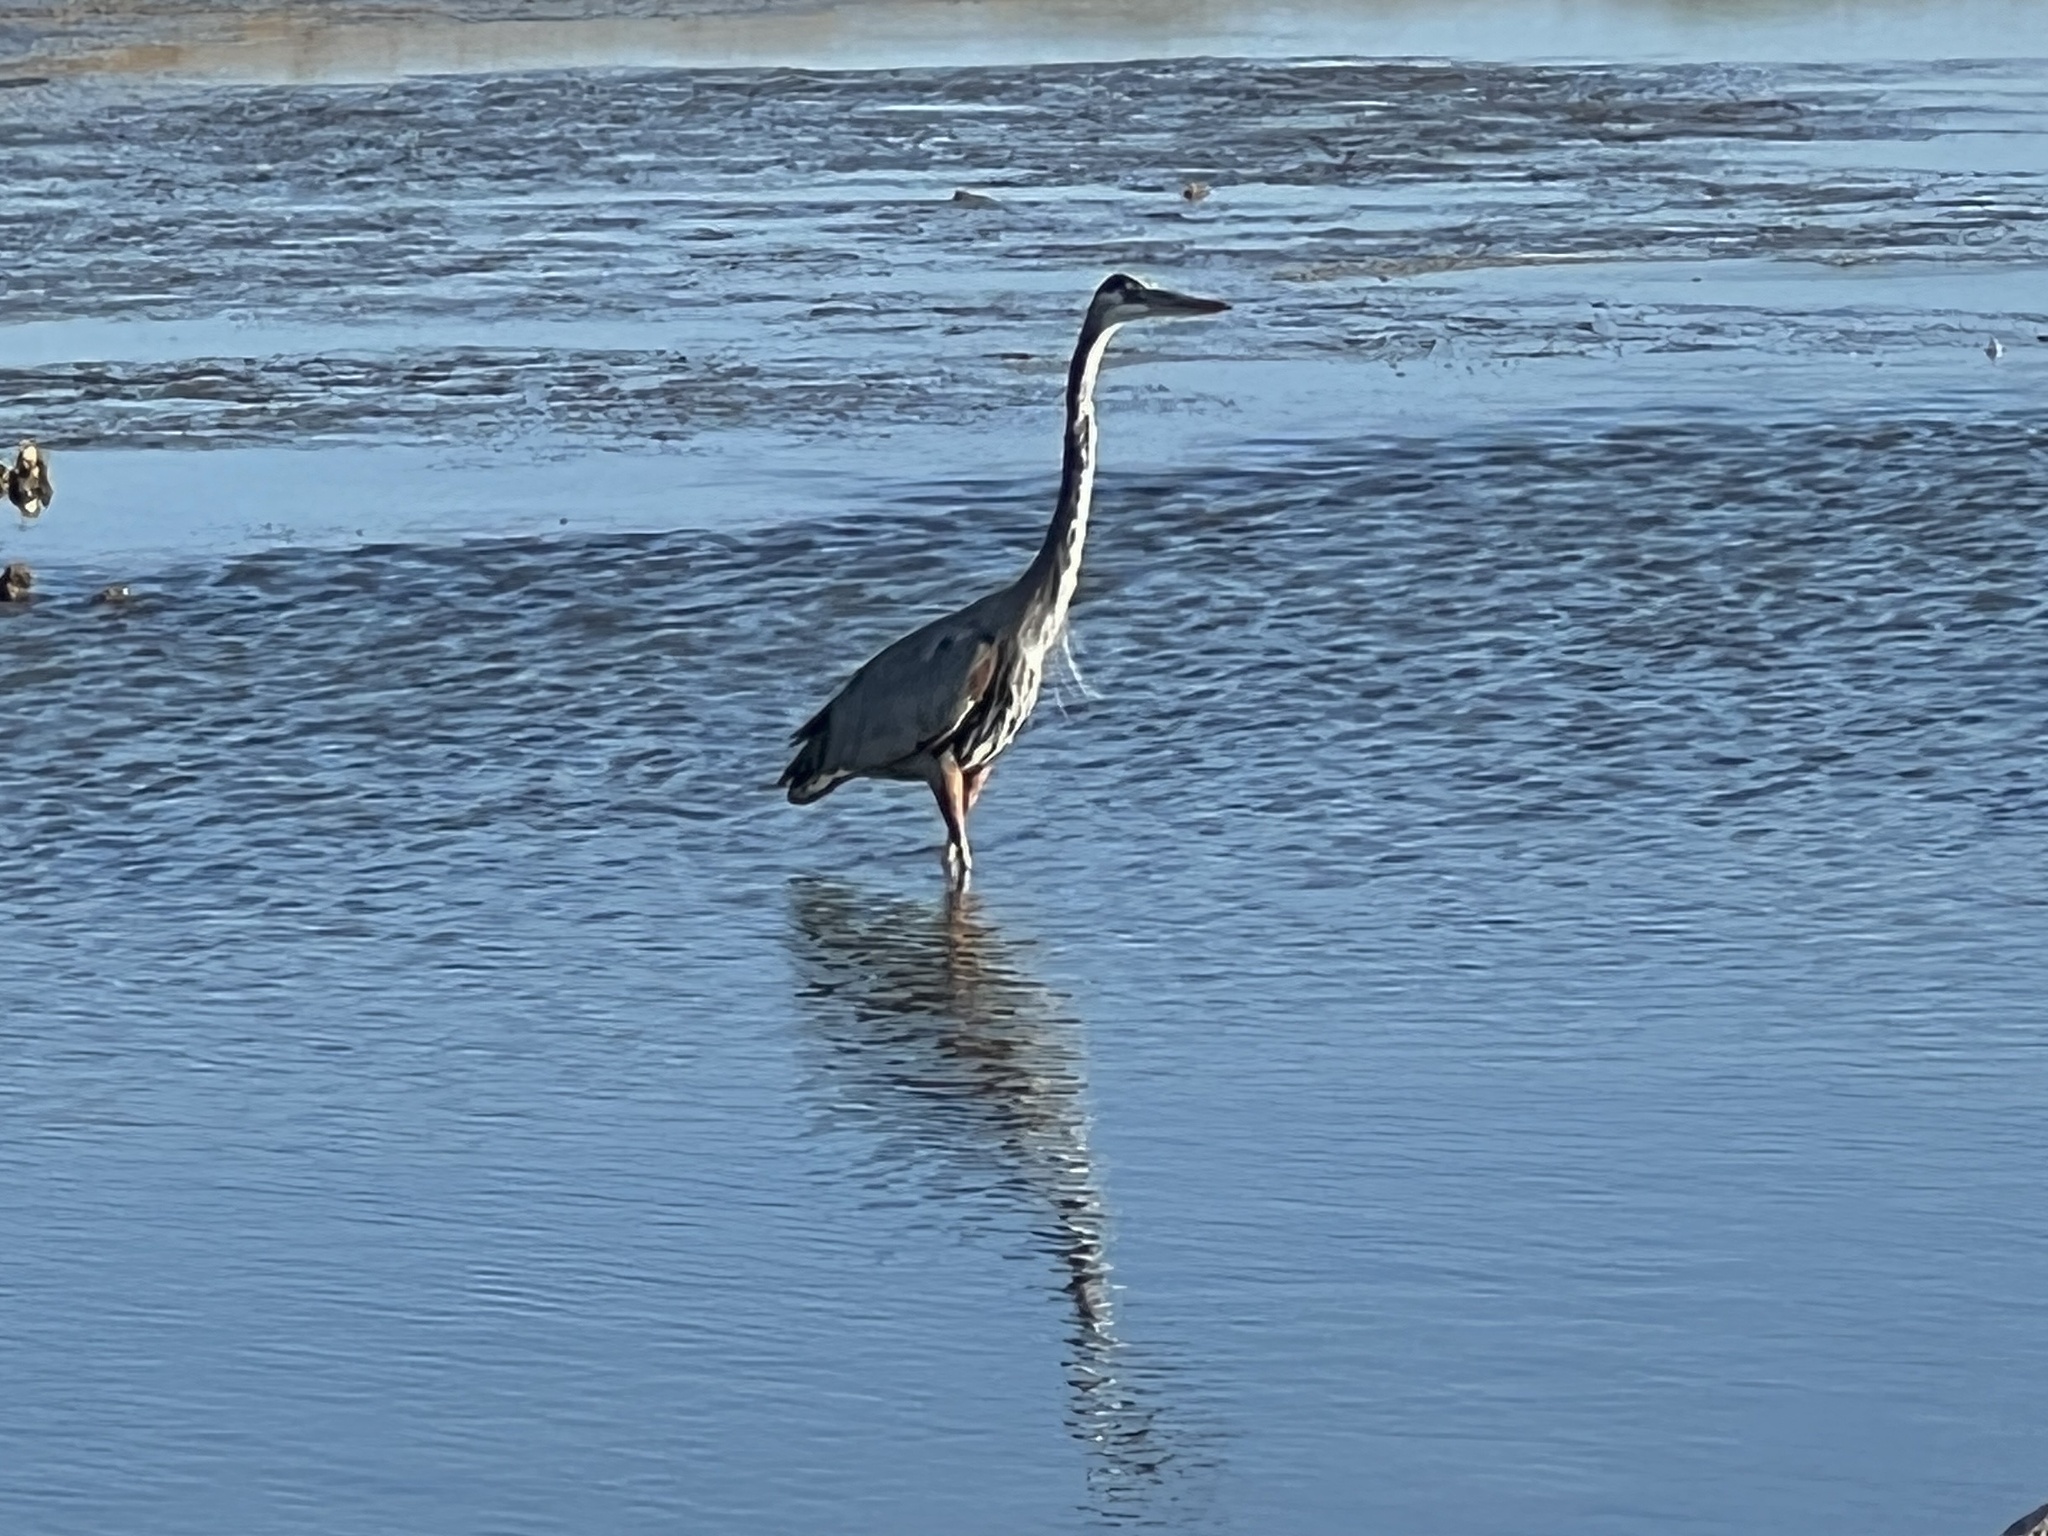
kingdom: Animalia
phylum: Chordata
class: Aves
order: Pelecaniformes
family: Ardeidae
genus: Ardea
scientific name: Ardea herodias
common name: Great blue heron
